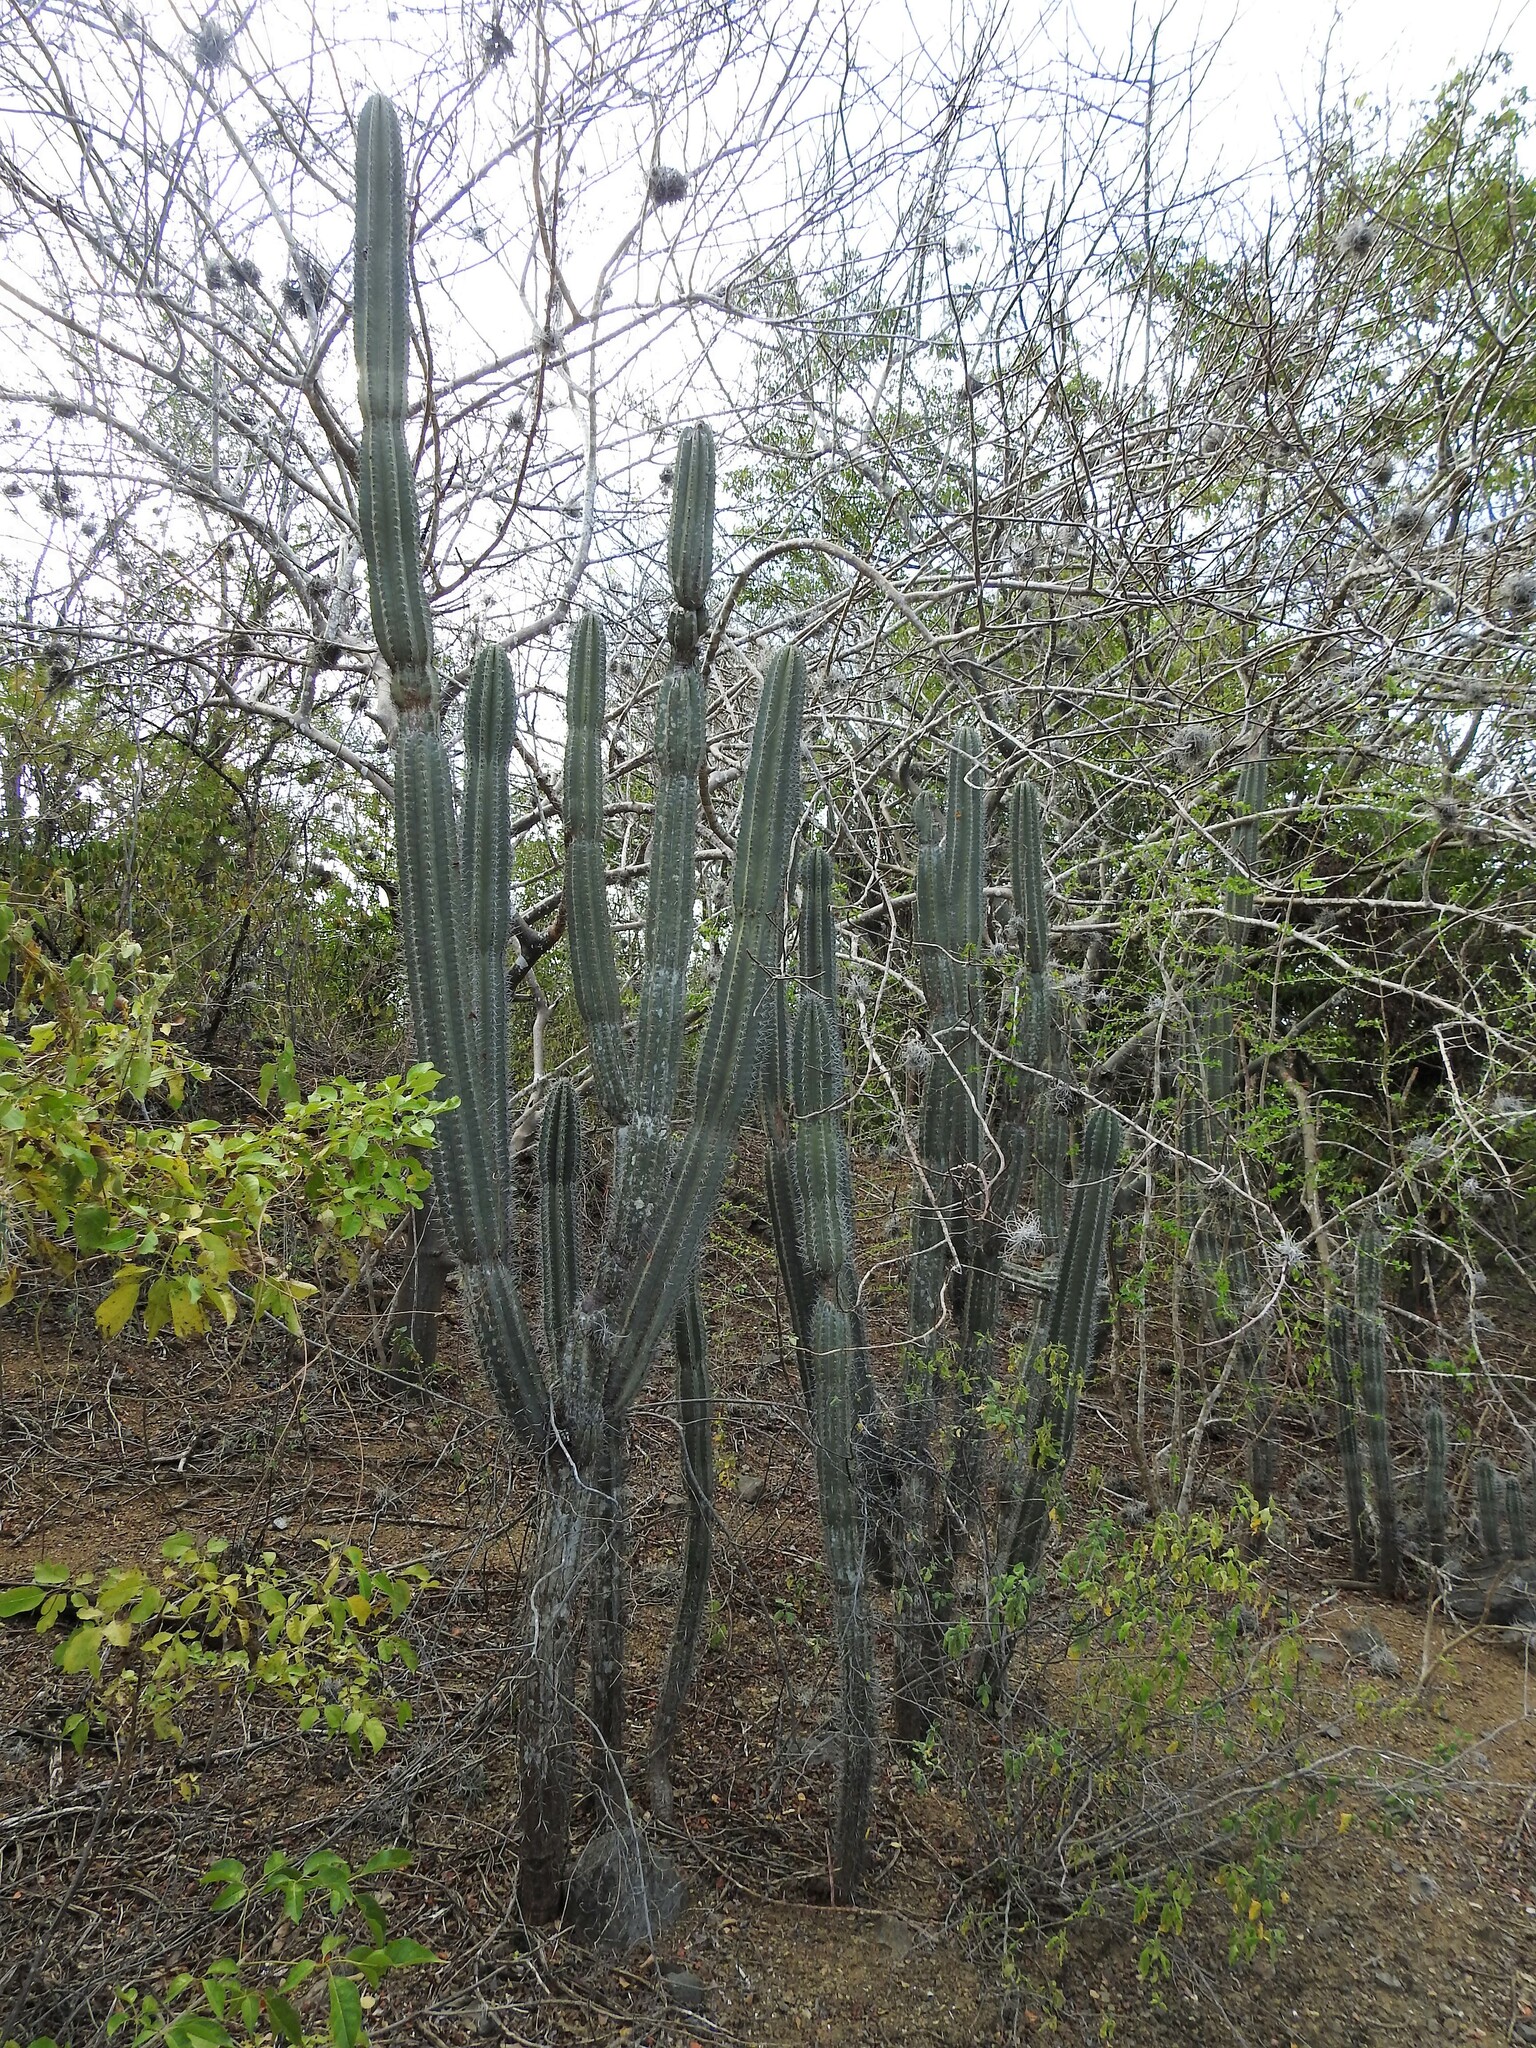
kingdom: Plantae
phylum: Tracheophyta
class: Magnoliopsida
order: Caryophyllales
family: Cactaceae
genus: Cereus
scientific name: Cereus repandus
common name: Sweetpotato cactus
